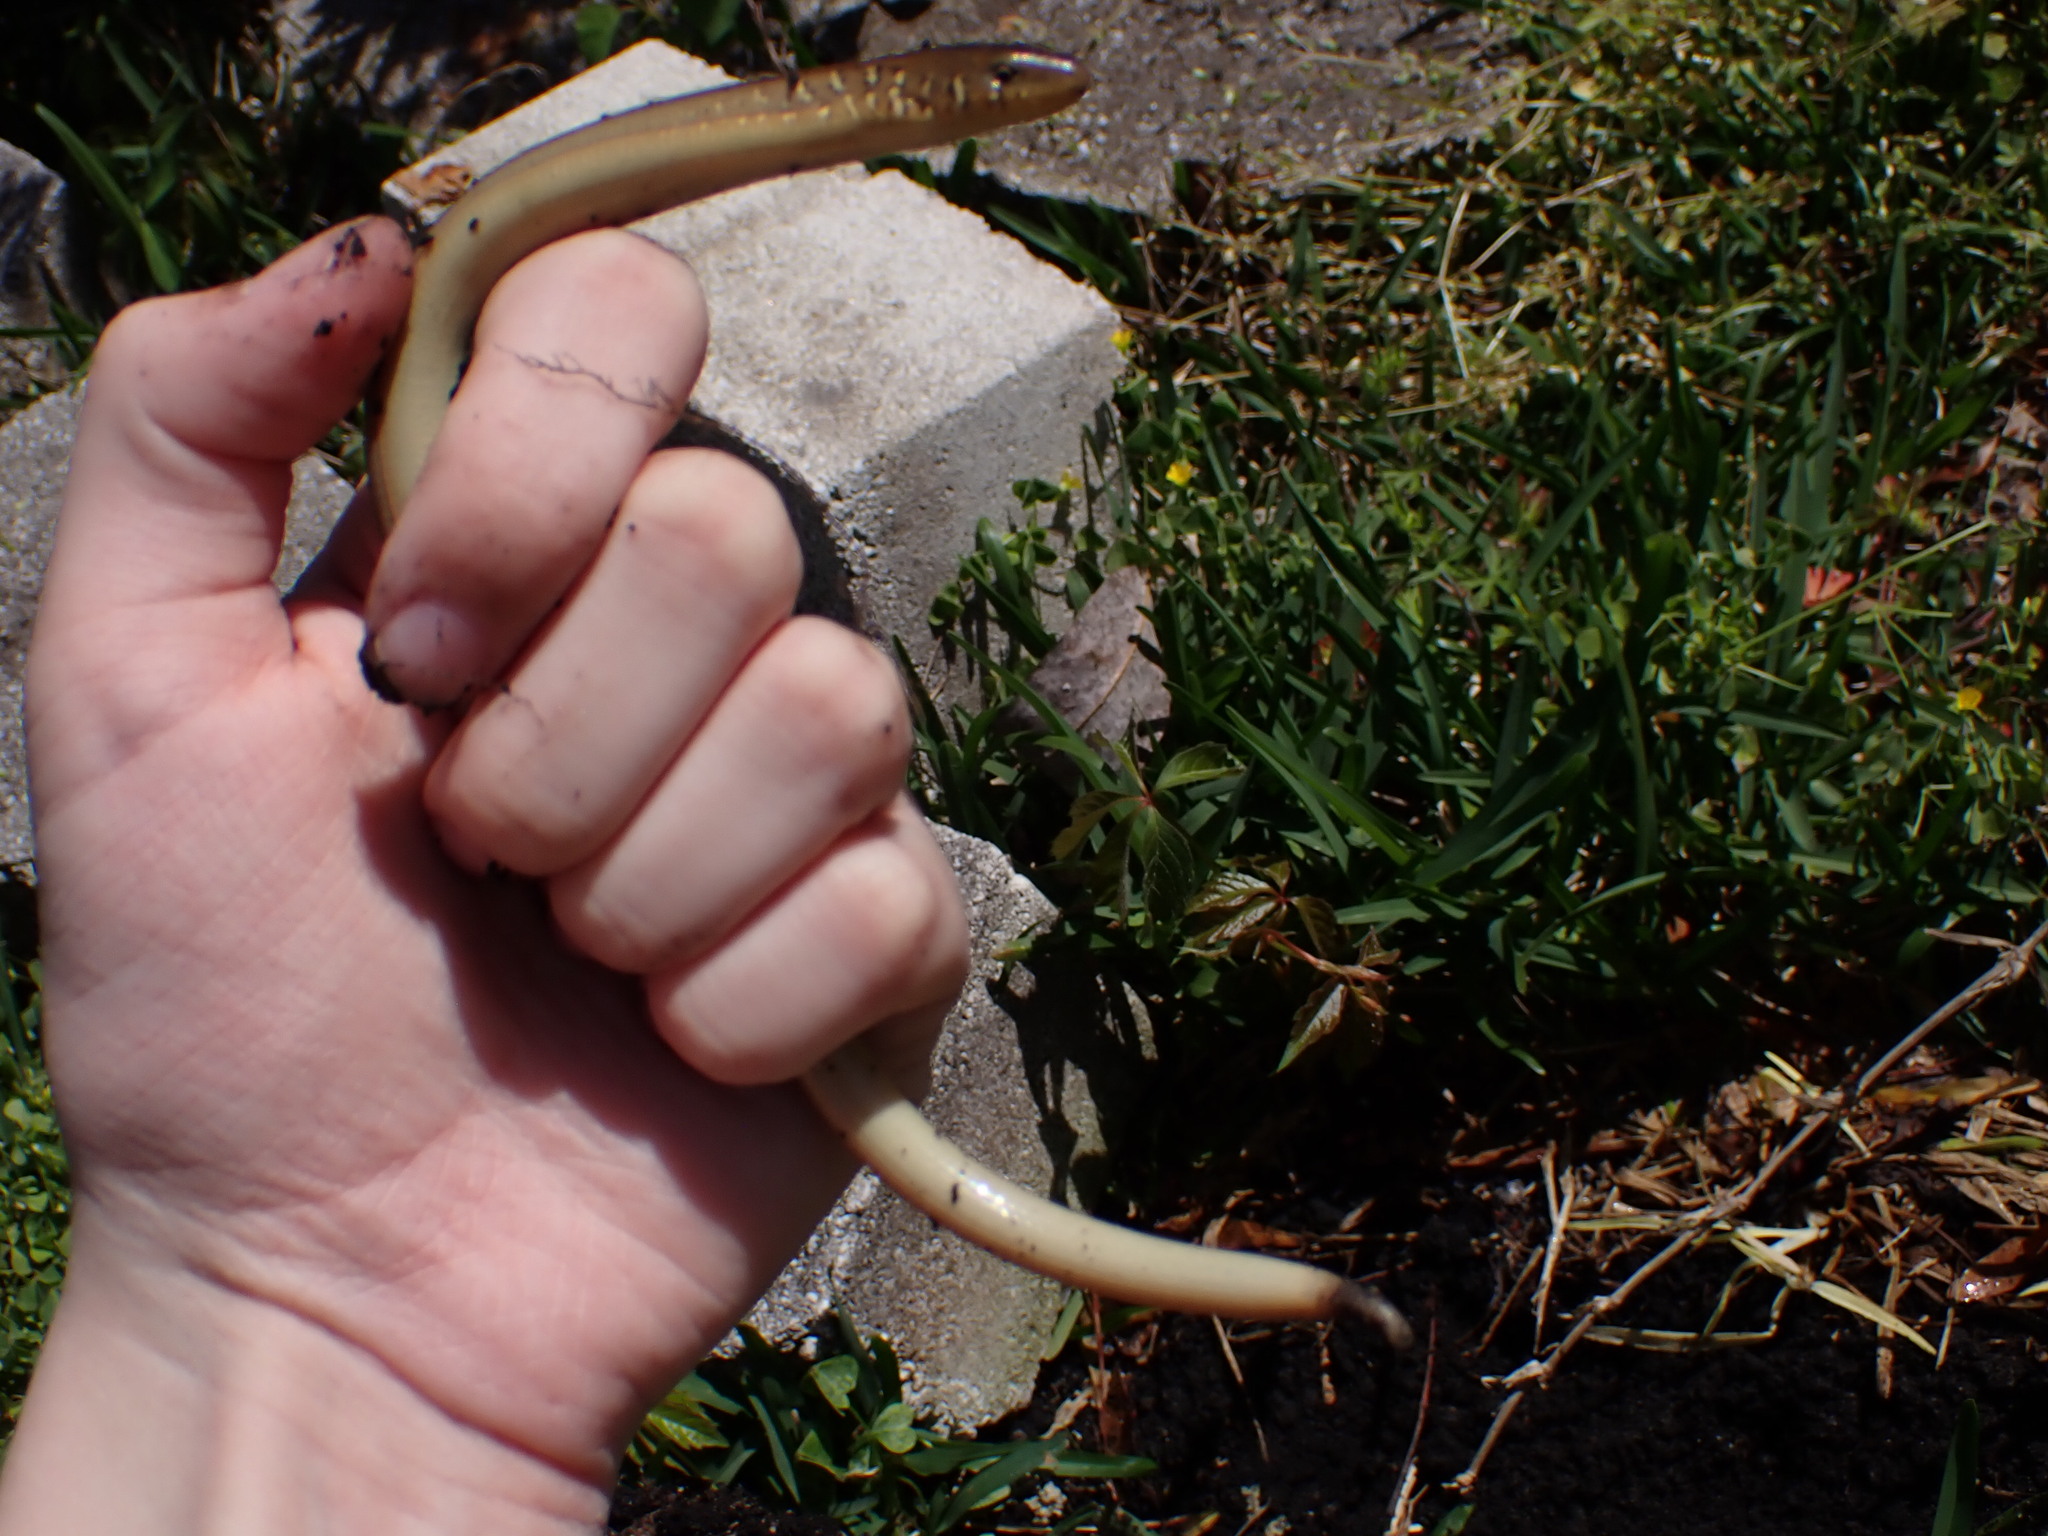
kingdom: Animalia
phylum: Chordata
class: Squamata
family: Anguidae
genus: Ophisaurus
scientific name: Ophisaurus ventralis
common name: Eastern glass lizard
